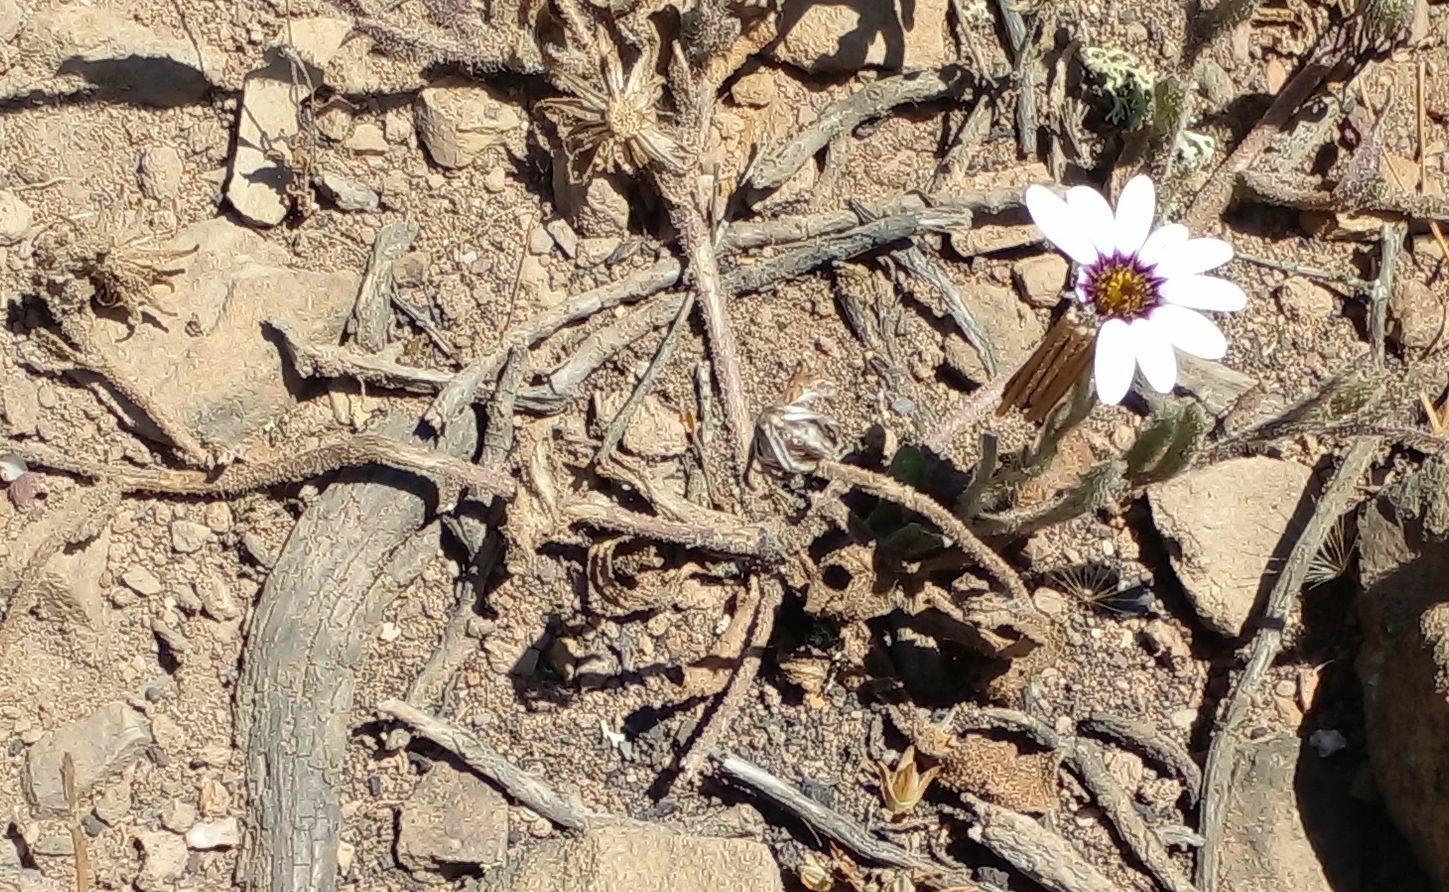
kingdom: Plantae
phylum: Tracheophyta
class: Magnoliopsida
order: Asterales
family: Asteraceae
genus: Dimorphotheca
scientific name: Dimorphotheca pluvialis
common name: Weather prophet
